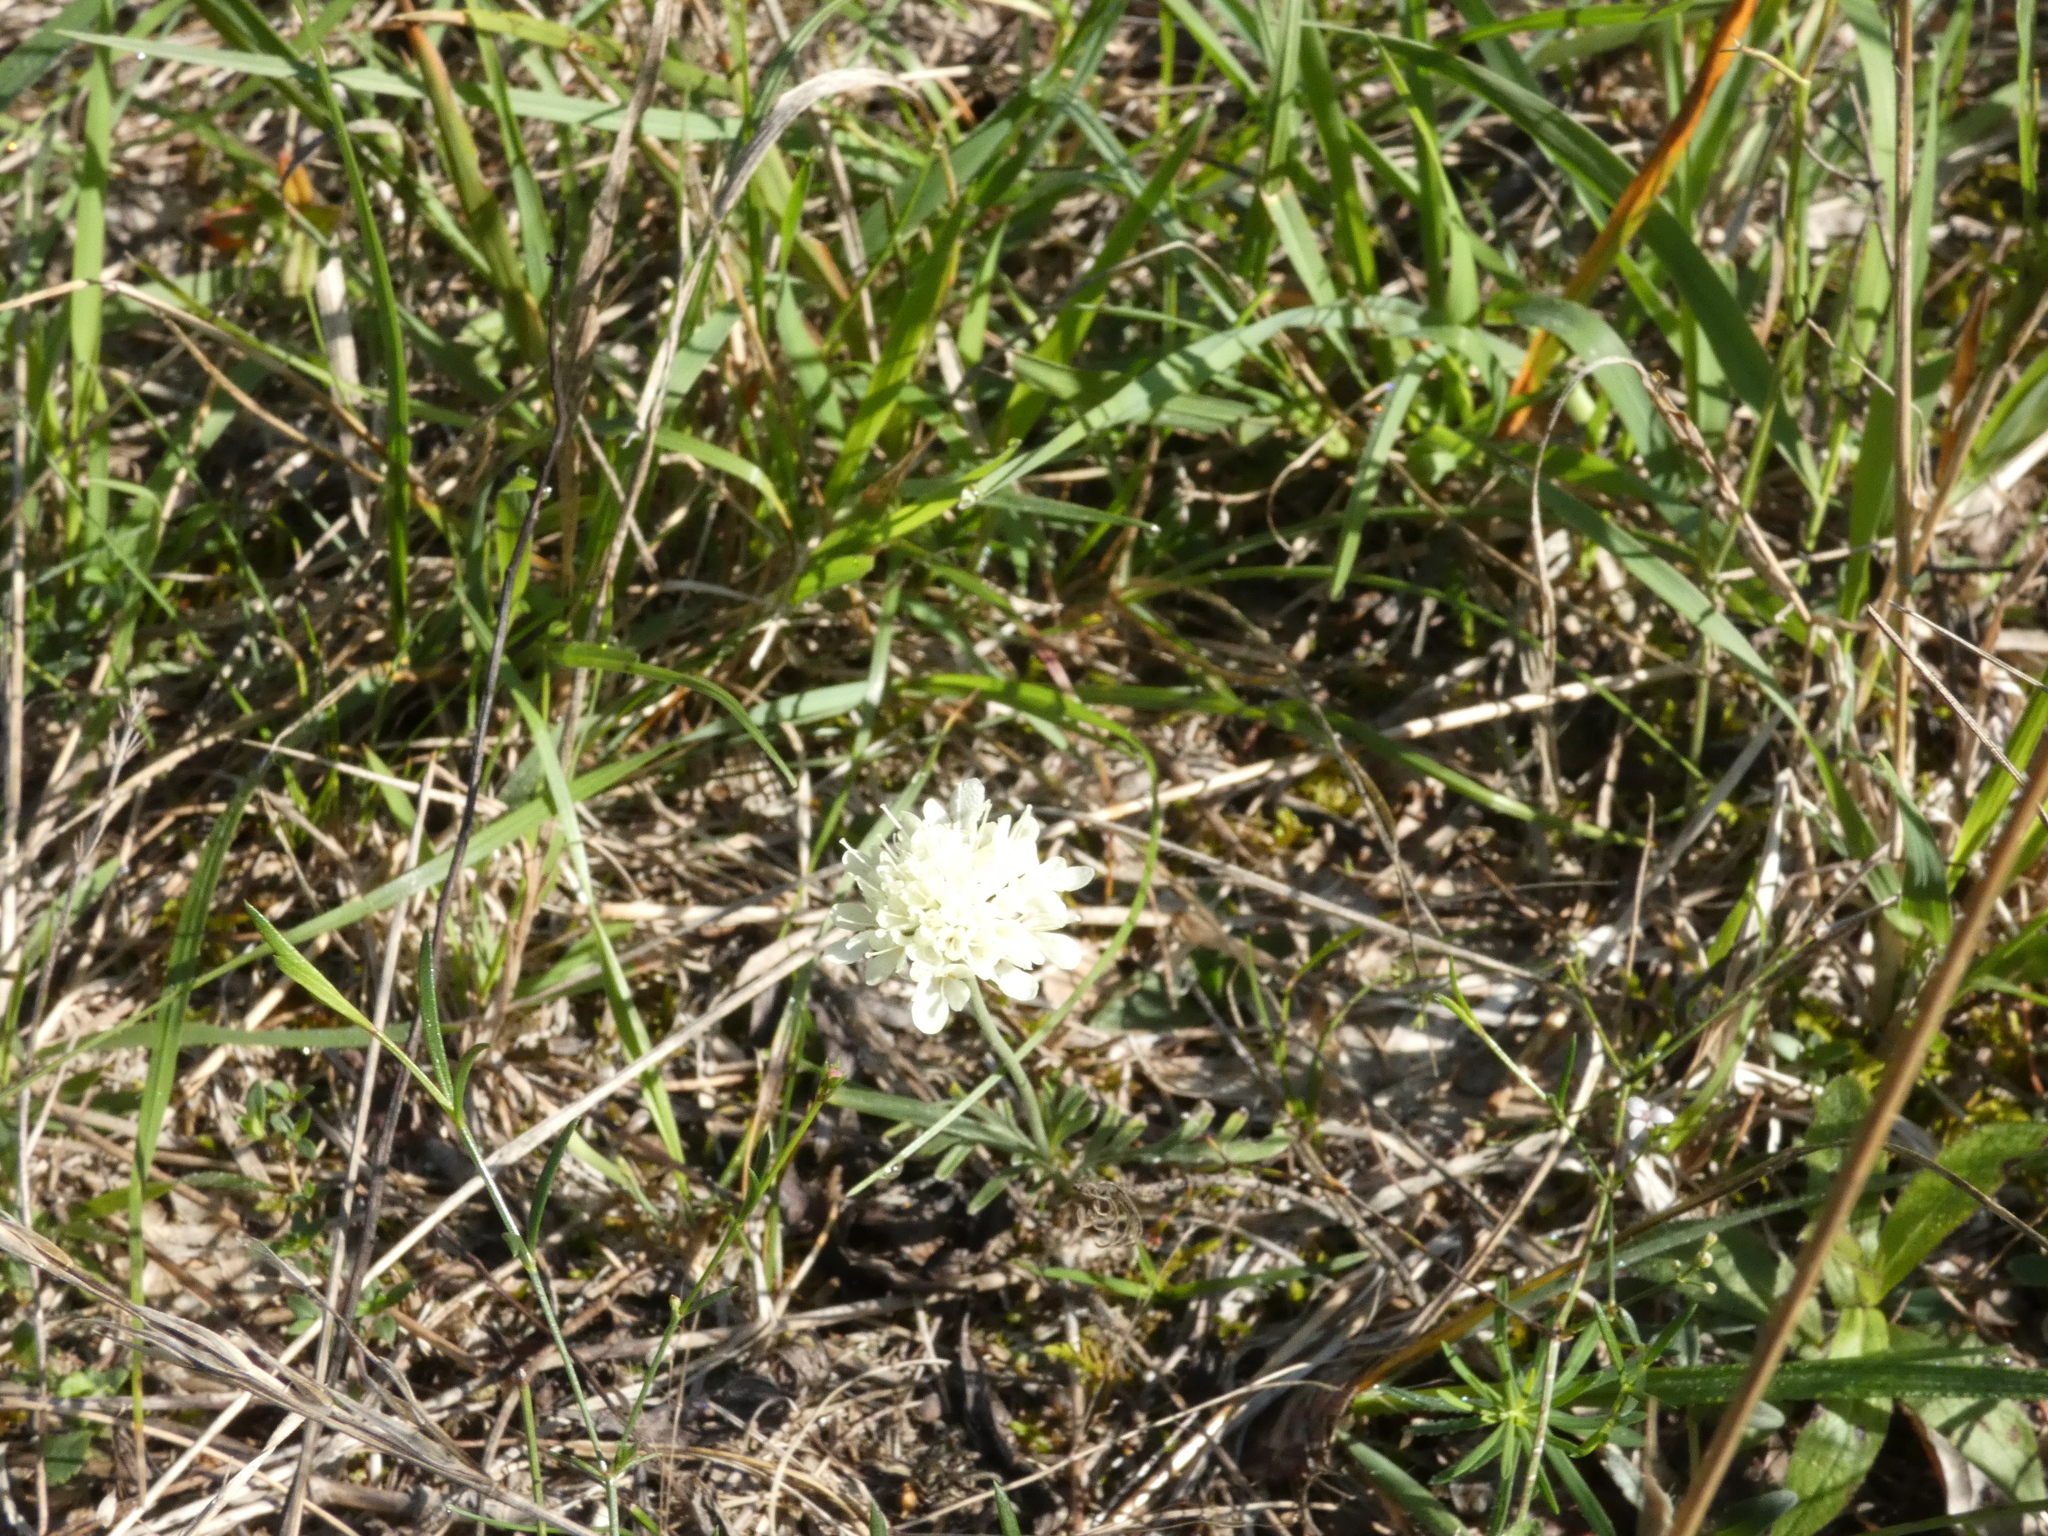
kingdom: Plantae
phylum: Tracheophyta
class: Magnoliopsida
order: Dipsacales
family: Caprifoliaceae
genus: Scabiosa
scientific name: Scabiosa ochroleuca
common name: Cream pincushions
